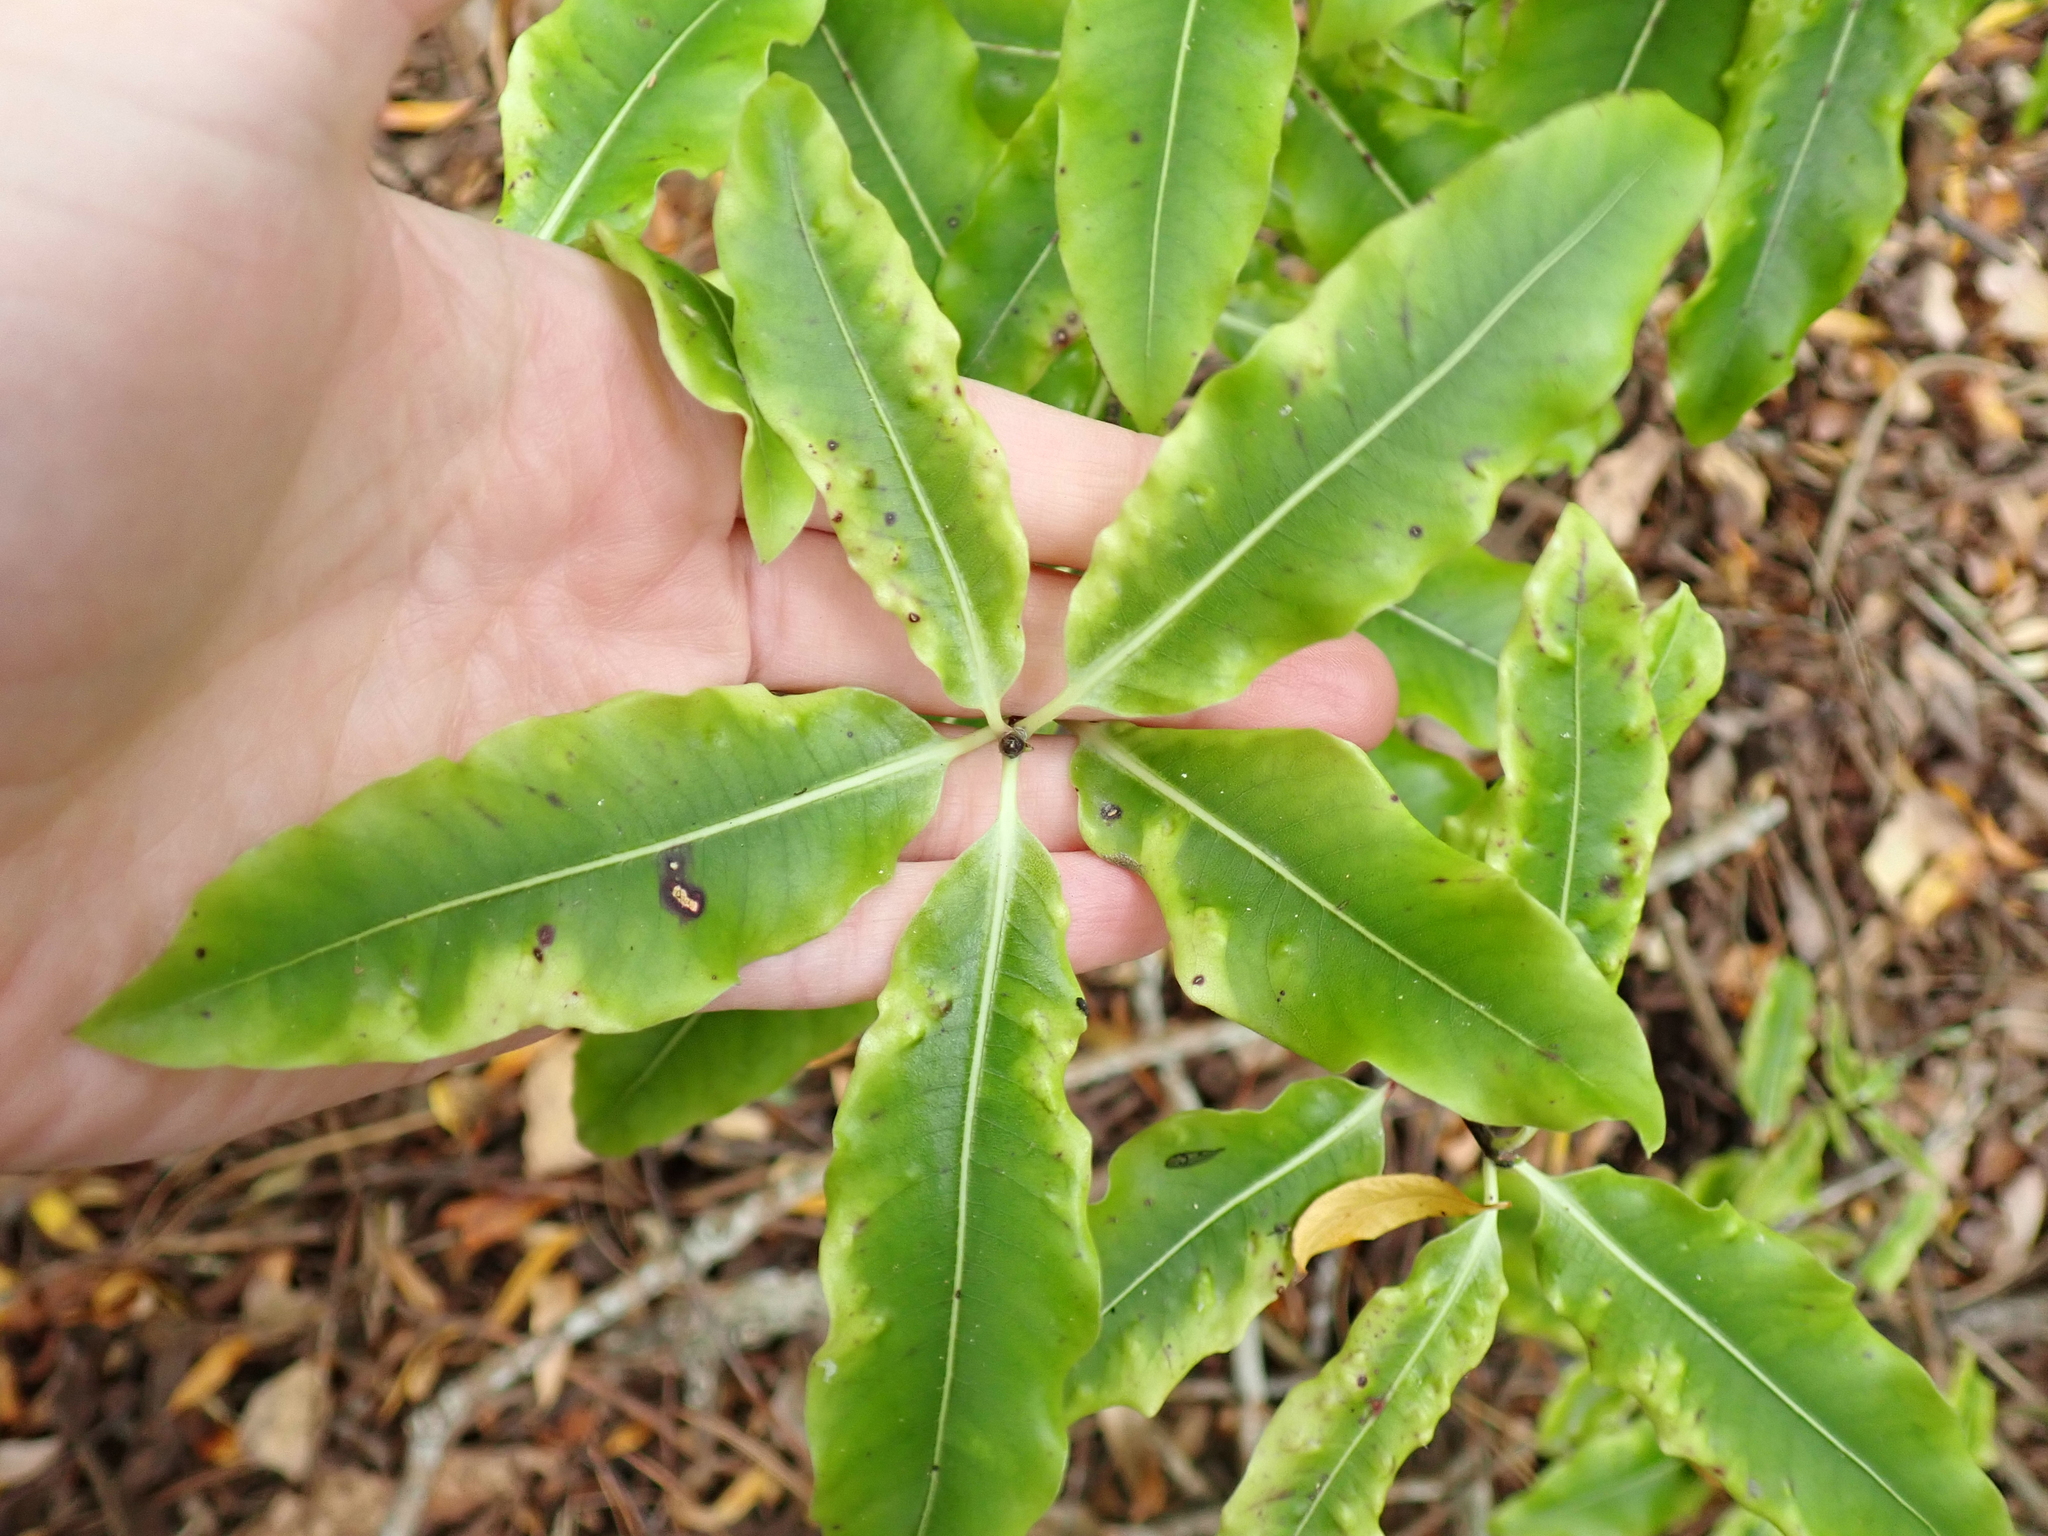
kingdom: Plantae
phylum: Tracheophyta
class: Magnoliopsida
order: Apiales
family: Pittosporaceae
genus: Pittosporum
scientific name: Pittosporum eugenioides
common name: Lemonwood
